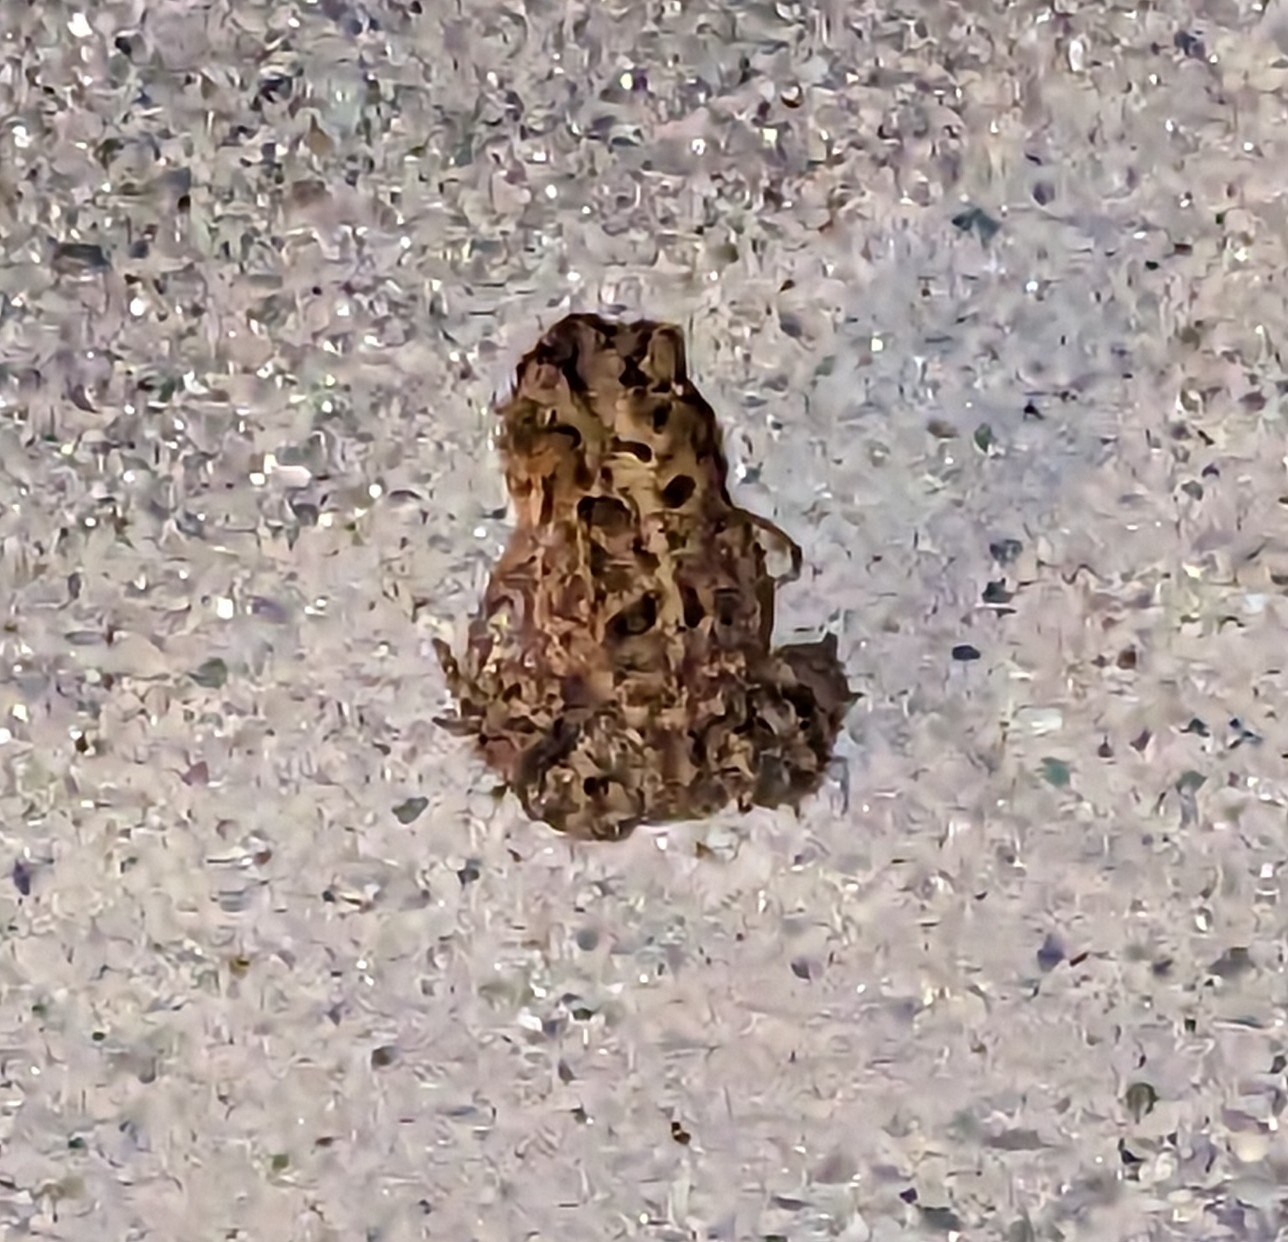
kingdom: Animalia
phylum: Chordata
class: Amphibia
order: Anura
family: Bufonidae
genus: Anaxyrus
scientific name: Anaxyrus terrestris
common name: Southern toad
